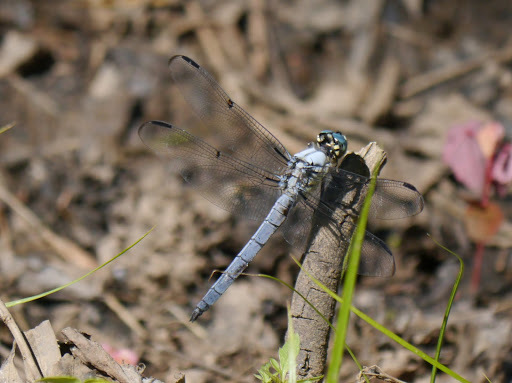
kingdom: Animalia
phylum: Arthropoda
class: Insecta
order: Odonata
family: Libellulidae
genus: Libellula
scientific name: Libellula vibrans
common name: Great blue skimmer
